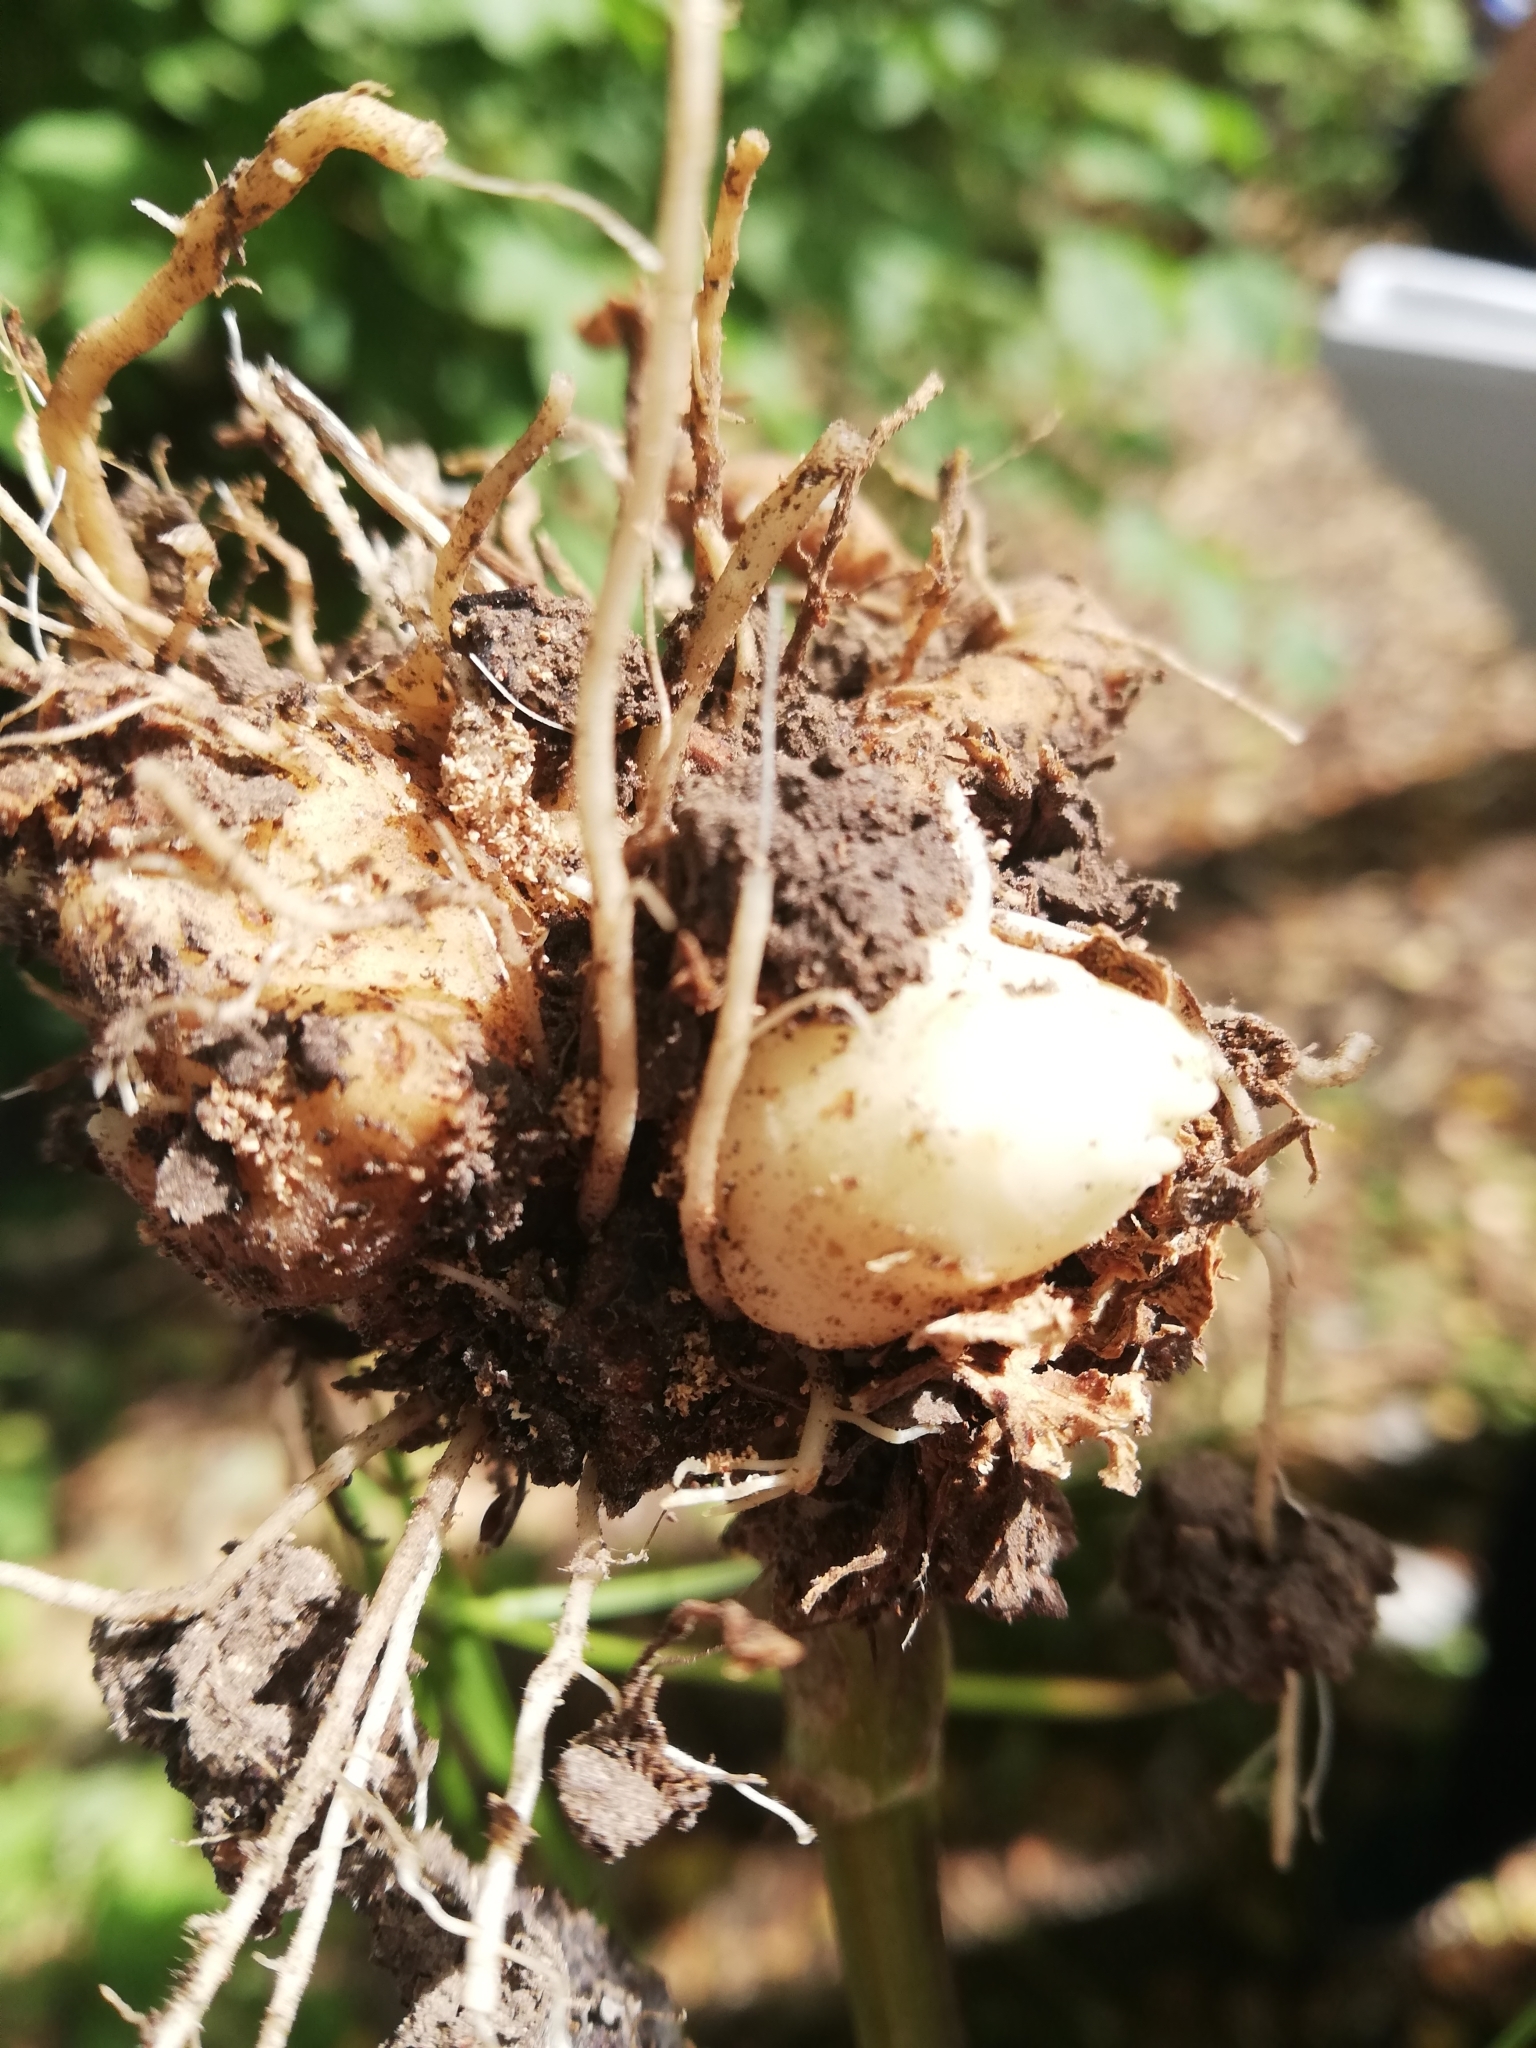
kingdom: Plantae
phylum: Tracheophyta
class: Magnoliopsida
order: Lamiales
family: Scrophulariaceae
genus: Scrophularia
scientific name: Scrophularia nodosa
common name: Common figwort
